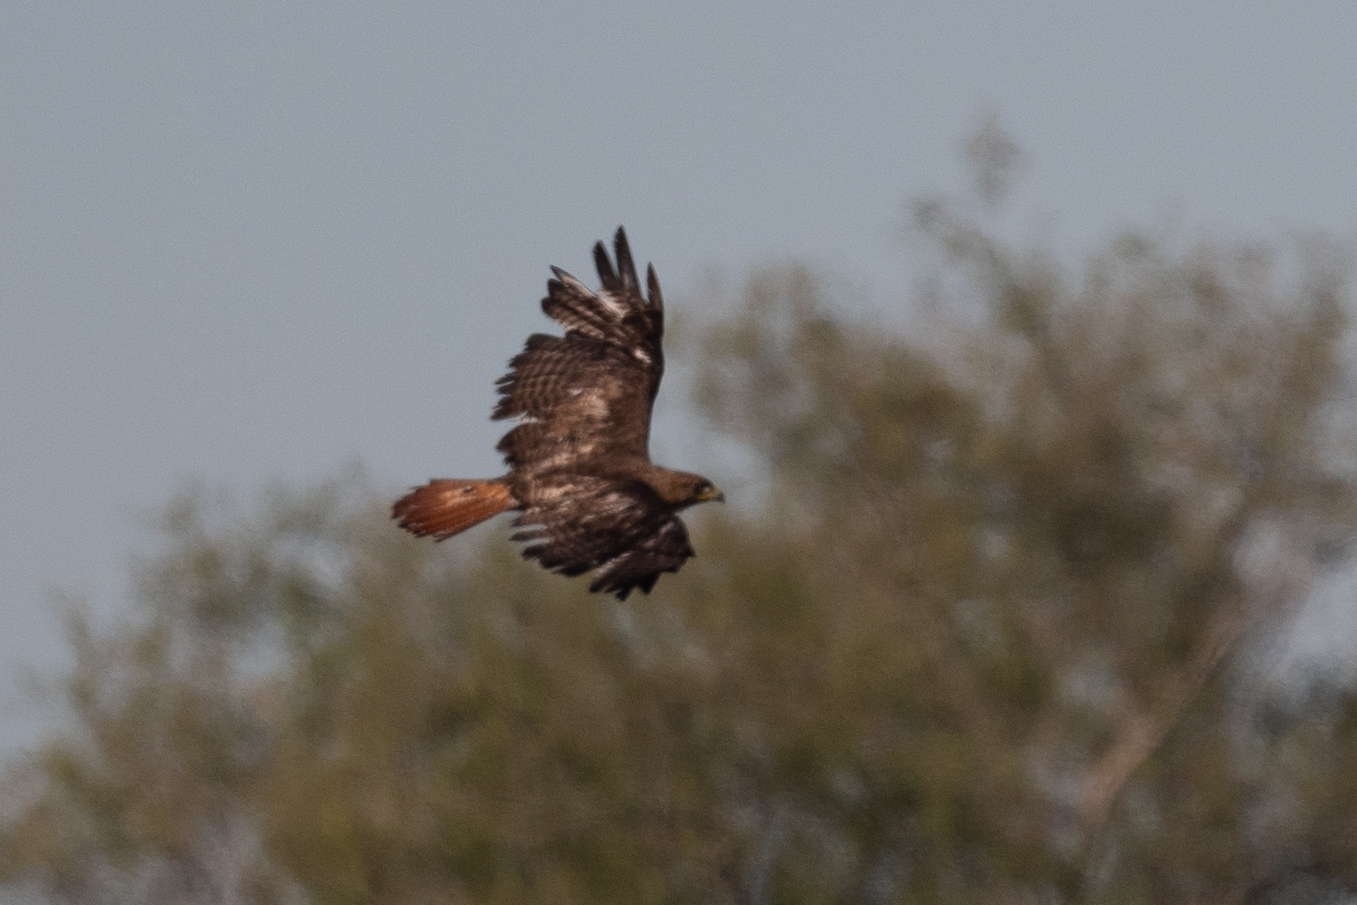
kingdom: Animalia
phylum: Chordata
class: Aves
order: Accipitriformes
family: Accipitridae
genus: Buteo
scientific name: Buteo jamaicensis
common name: Red-tailed hawk
